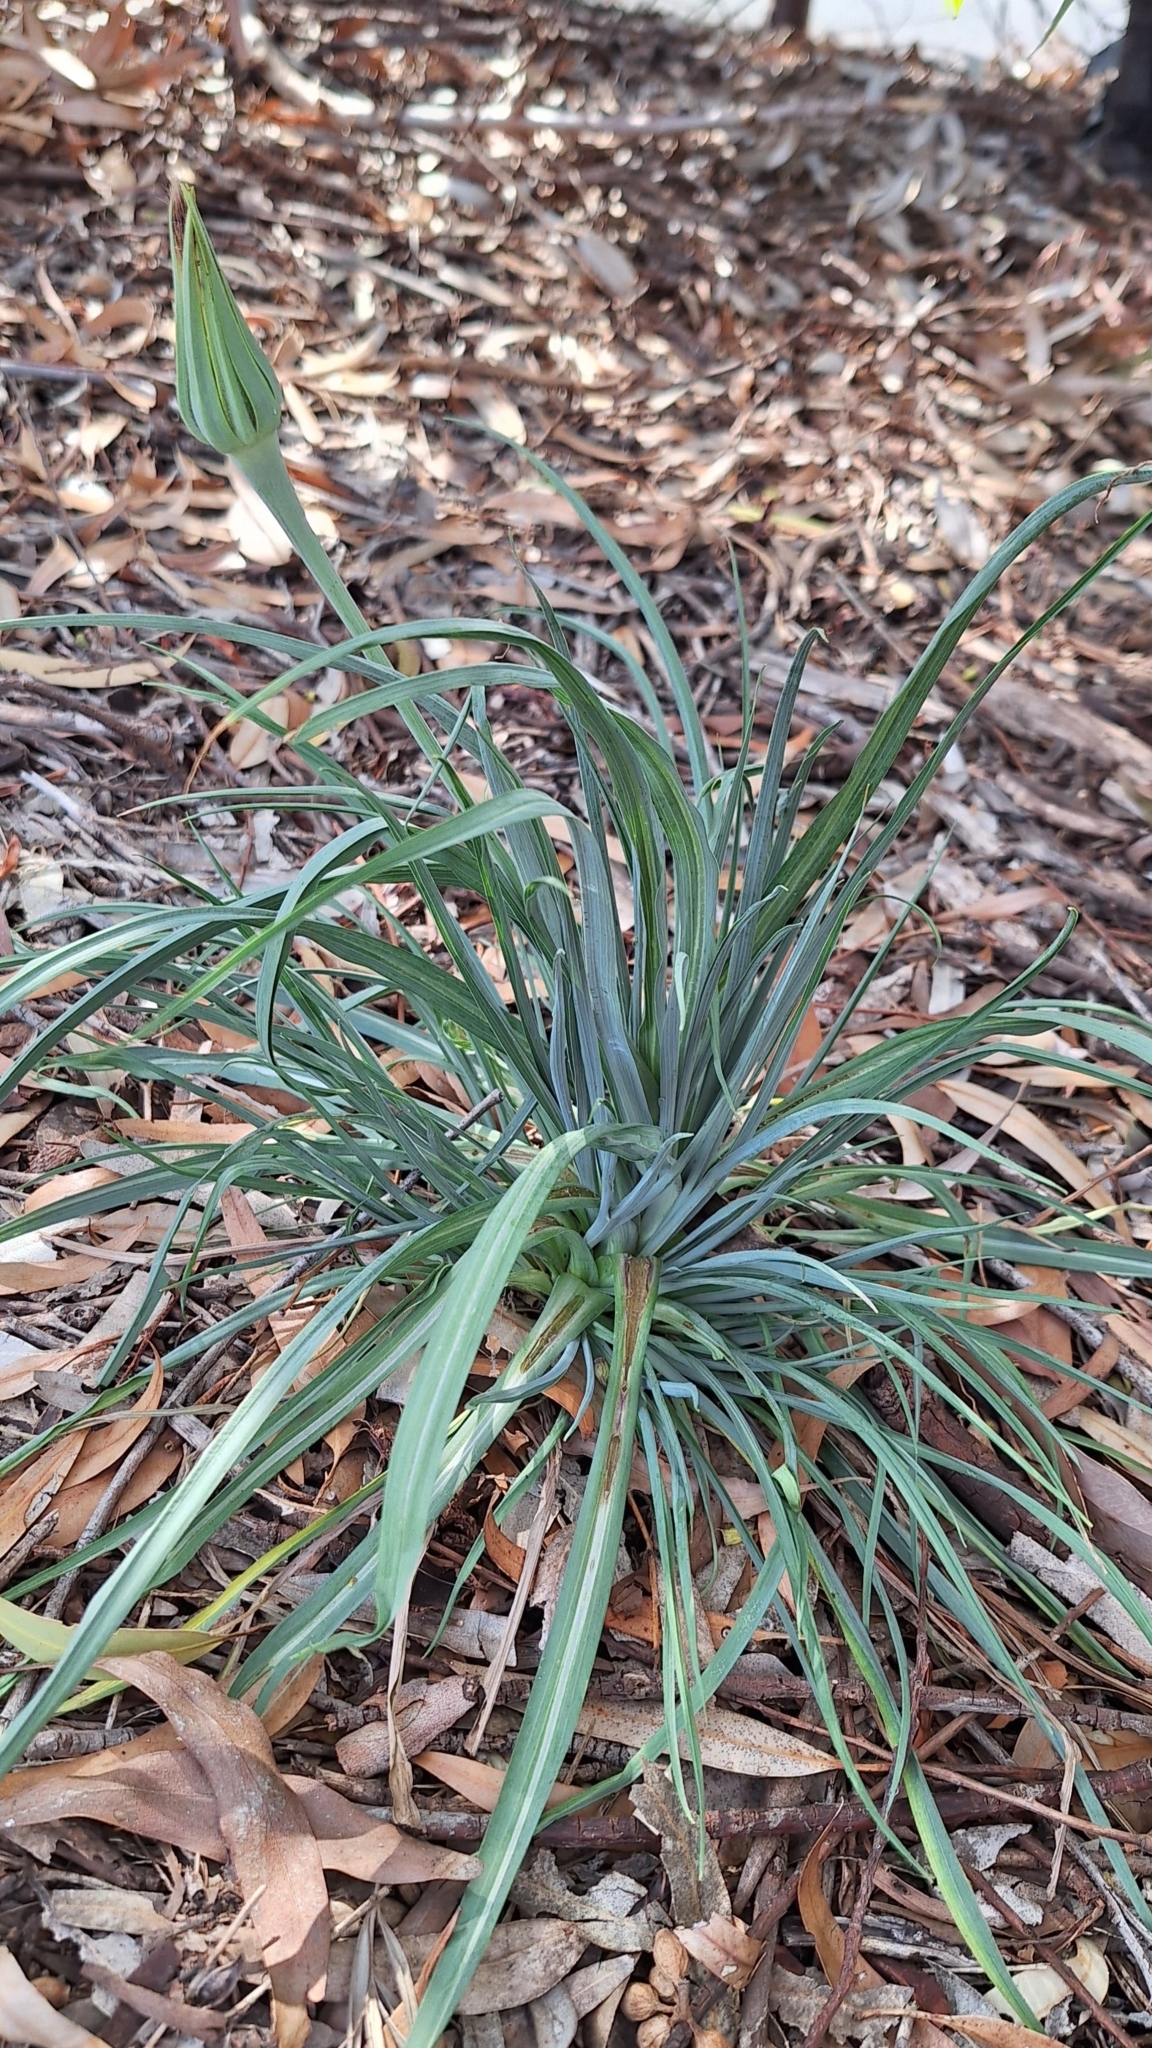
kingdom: Plantae
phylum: Tracheophyta
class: Magnoliopsida
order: Asterales
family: Asteraceae
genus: Tragopogon
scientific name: Tragopogon porrifolius
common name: Salsify
